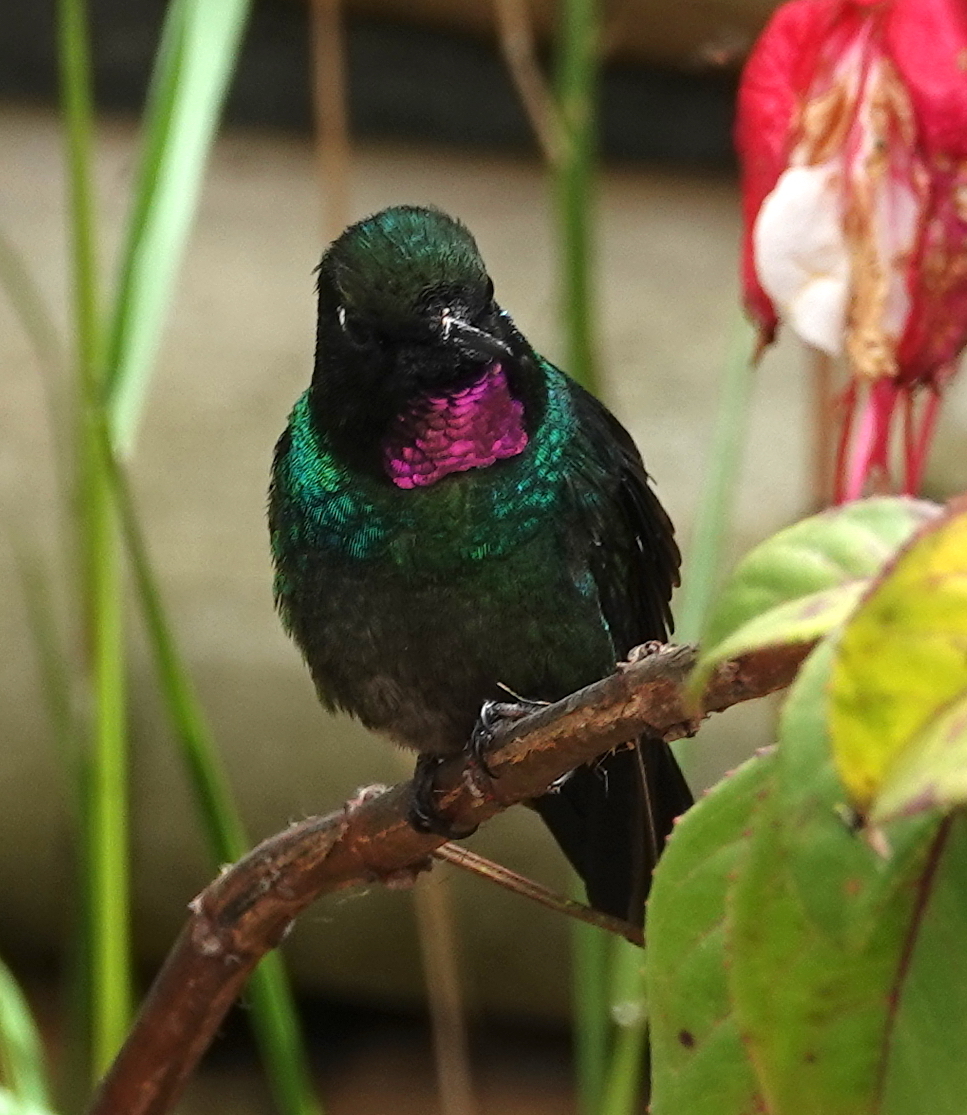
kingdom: Animalia
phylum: Chordata
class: Aves
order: Apodiformes
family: Trochilidae
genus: Heliangelus
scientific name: Heliangelus exortis
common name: Tourmaline sunangel
